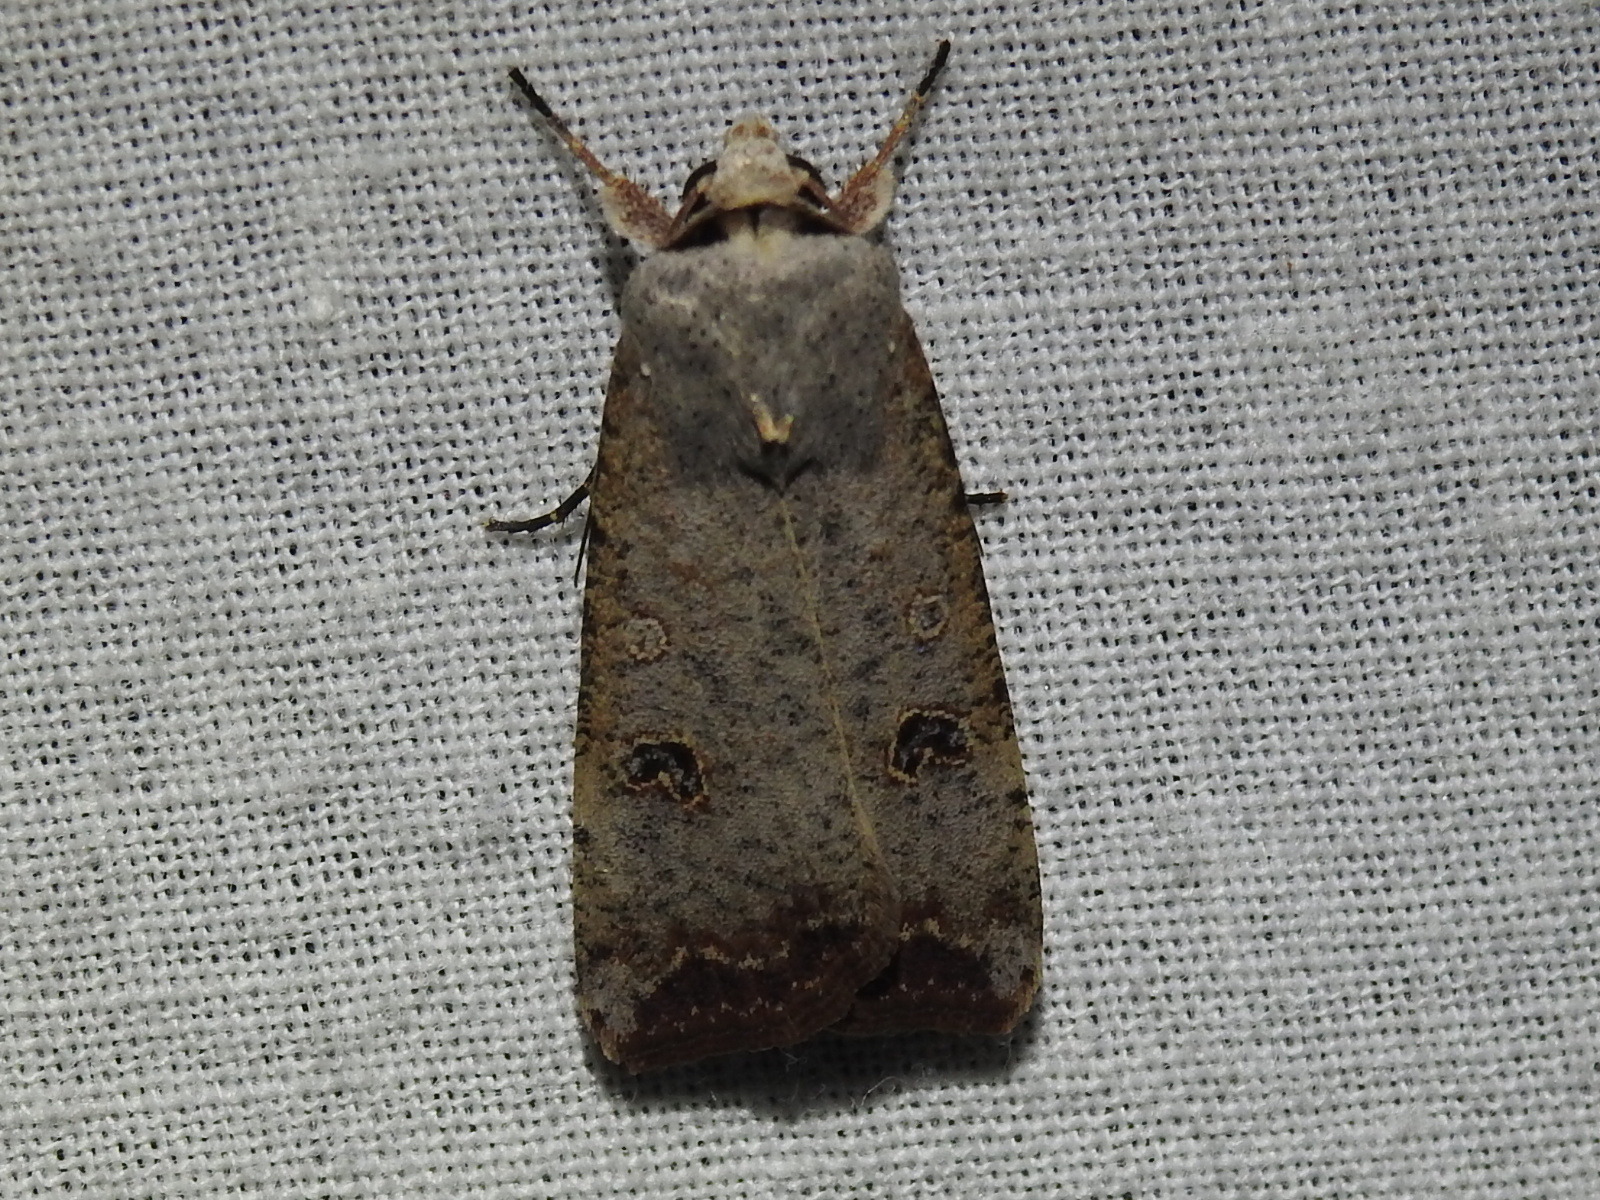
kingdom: Animalia
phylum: Arthropoda
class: Insecta
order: Lepidoptera
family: Noctuidae
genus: Anicla
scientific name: Anicla infecta
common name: Green cutworm
